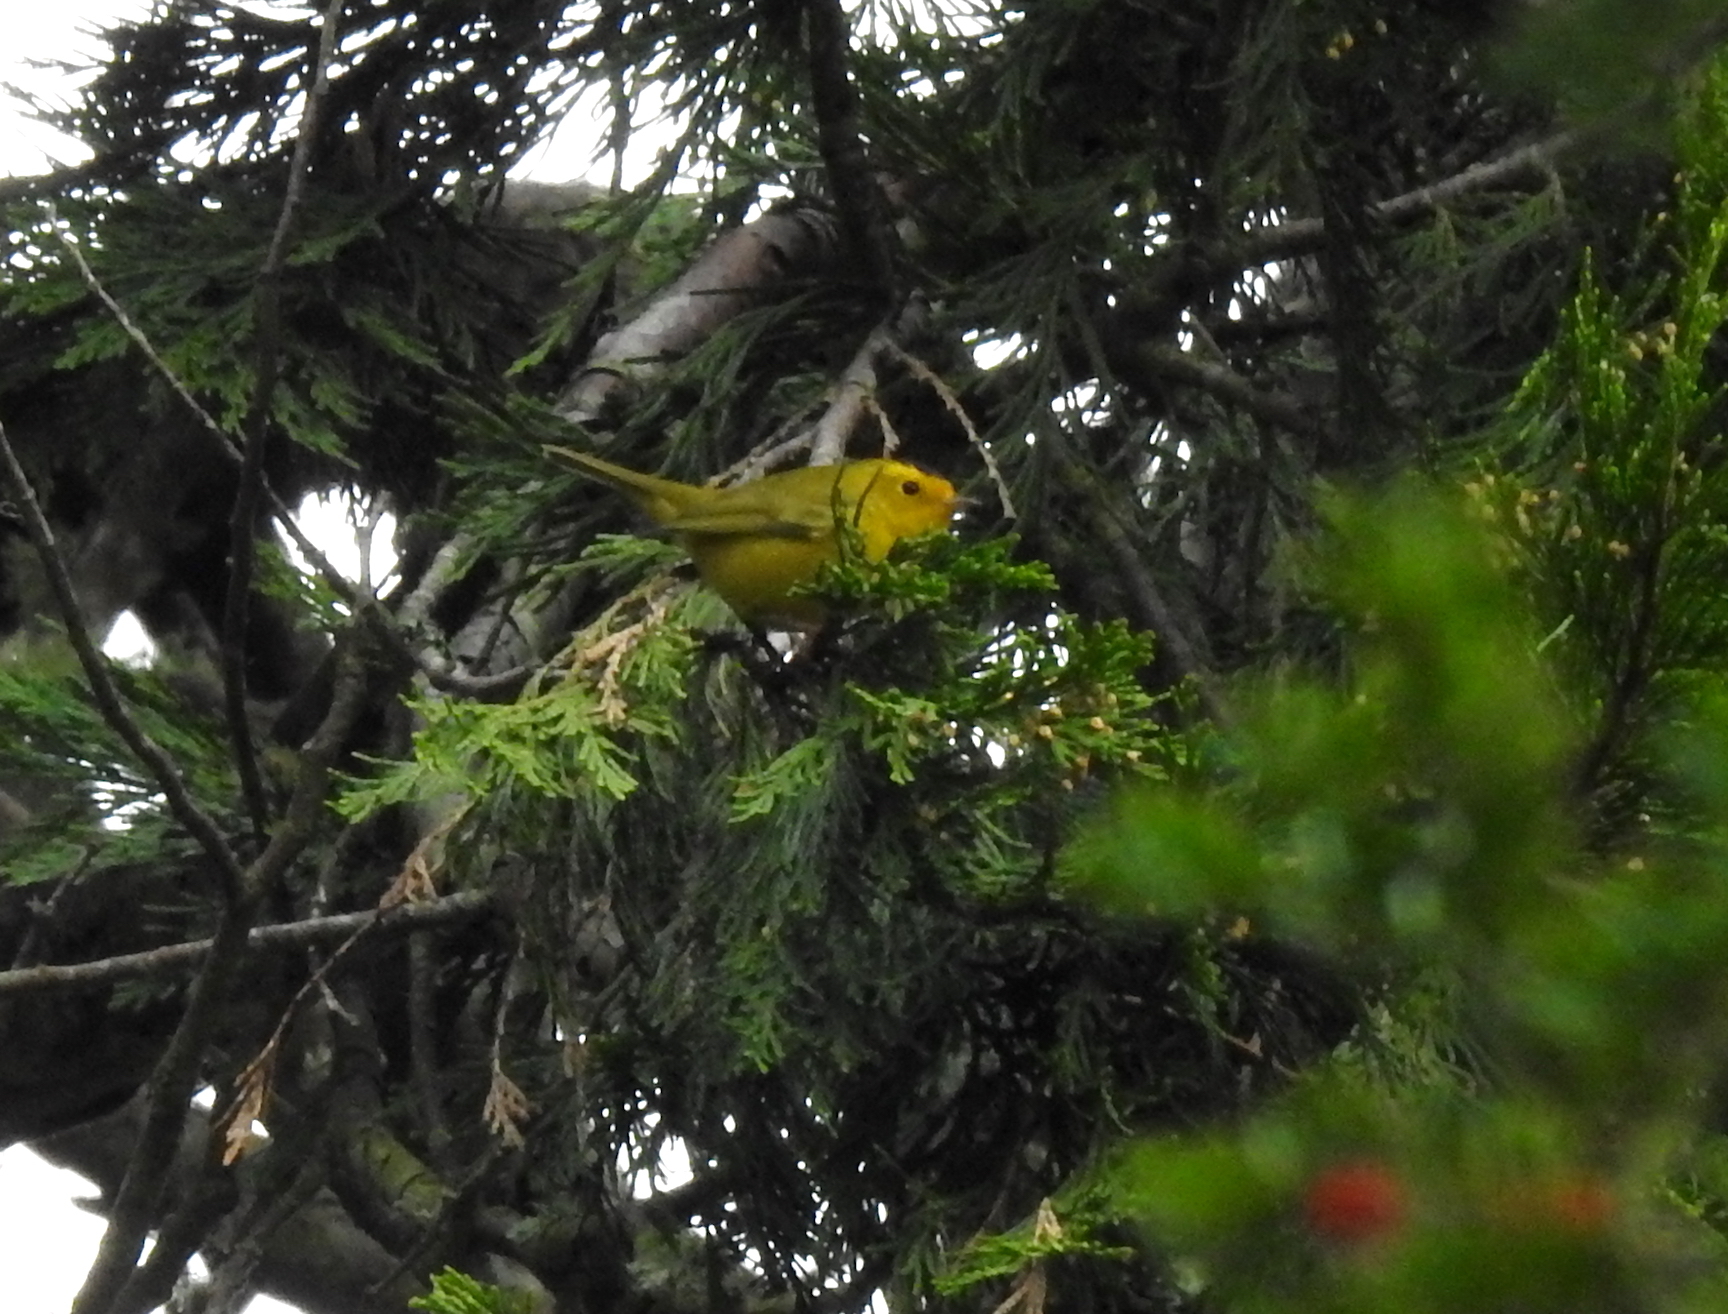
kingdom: Animalia
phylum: Chordata
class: Aves
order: Passeriformes
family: Parulidae
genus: Cardellina
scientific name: Cardellina pusilla
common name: Wilson's warbler
